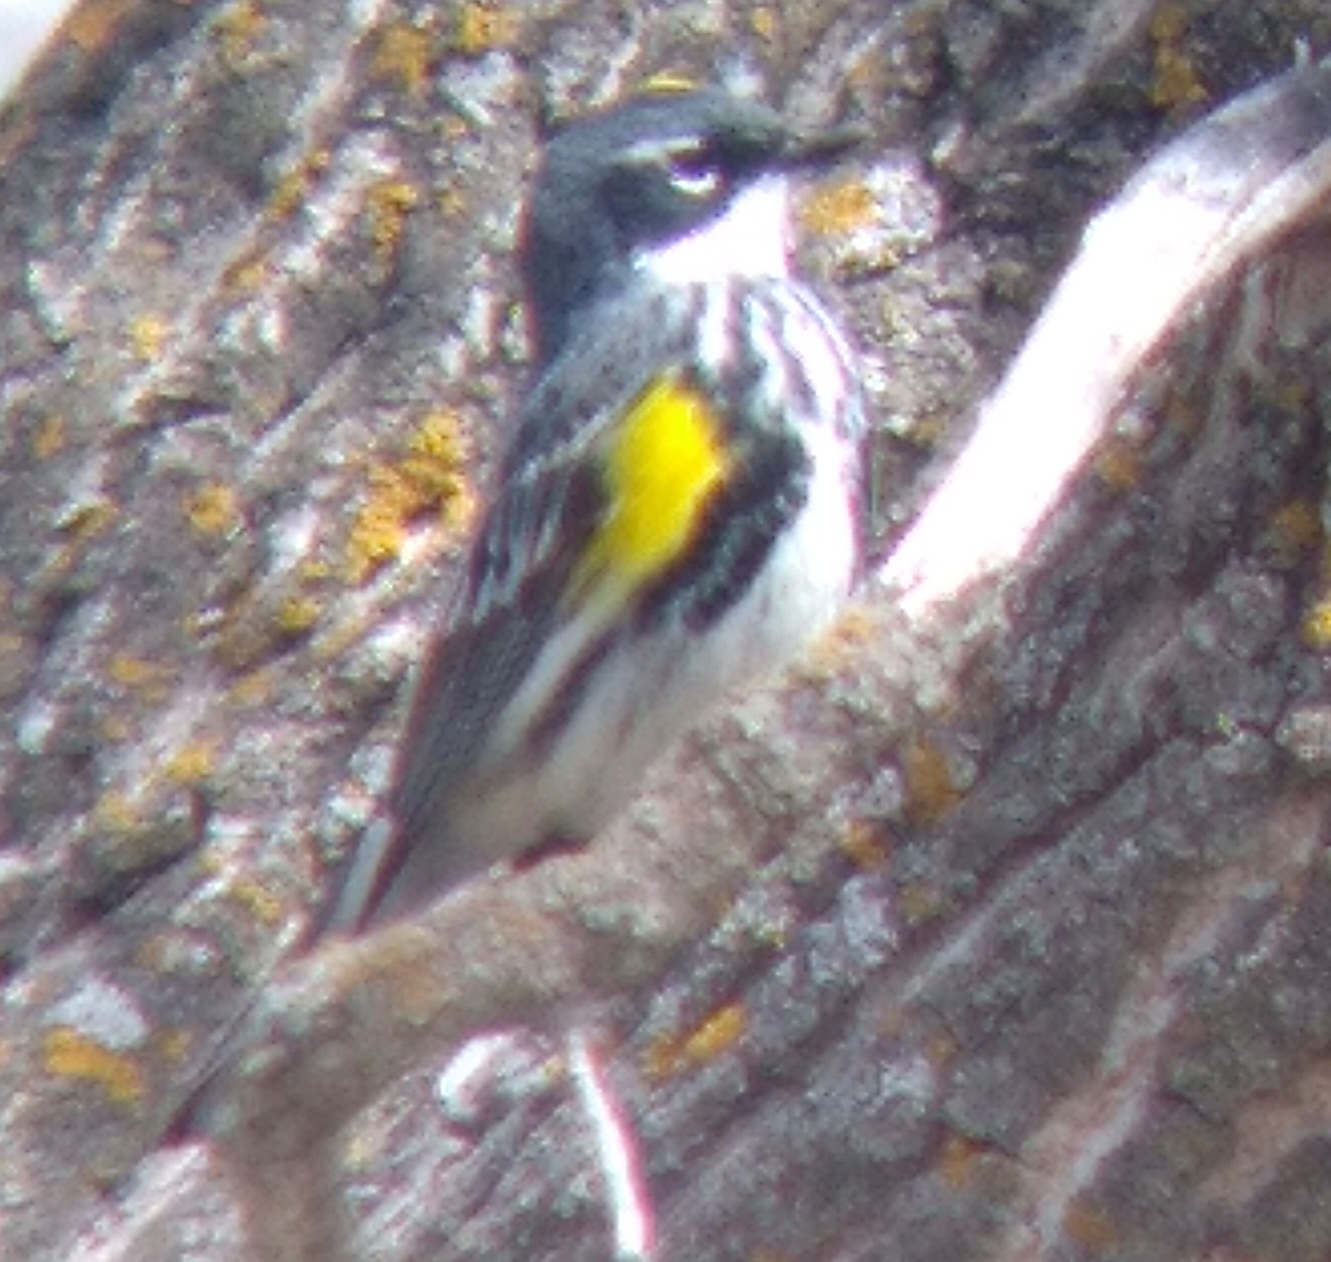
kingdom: Animalia
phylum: Chordata
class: Aves
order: Passeriformes
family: Parulidae
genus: Setophaga
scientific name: Setophaga coronata
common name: Myrtle warbler
